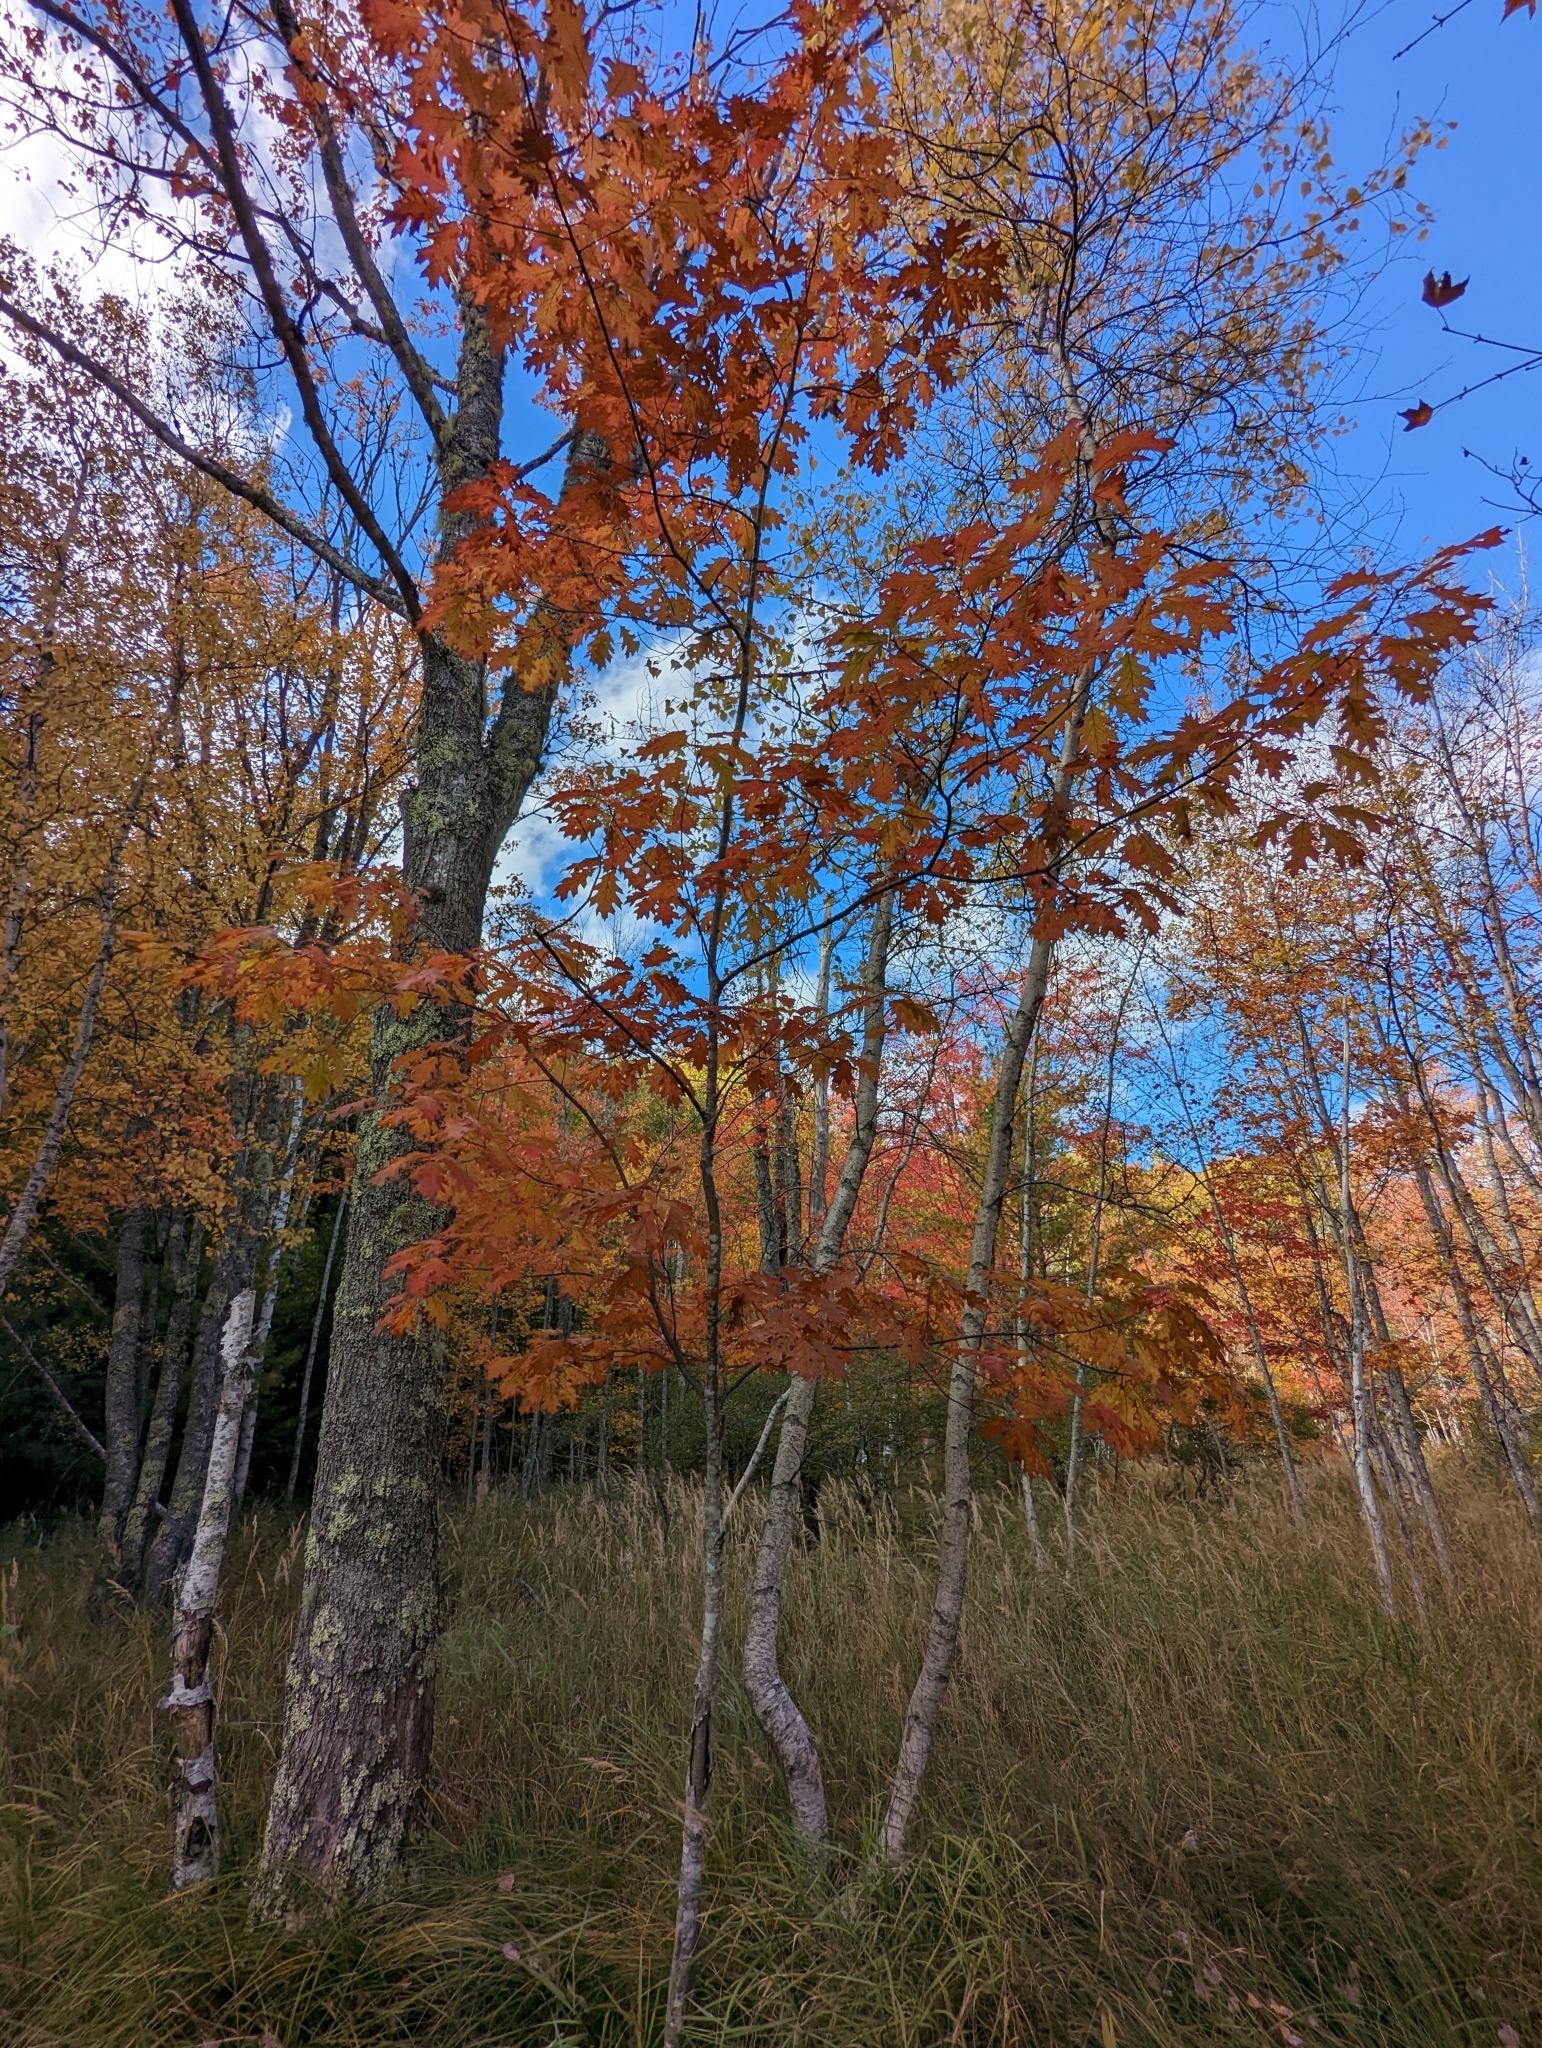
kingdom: Plantae
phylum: Tracheophyta
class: Magnoliopsida
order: Fagales
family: Fagaceae
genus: Quercus
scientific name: Quercus rubra
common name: Red oak
